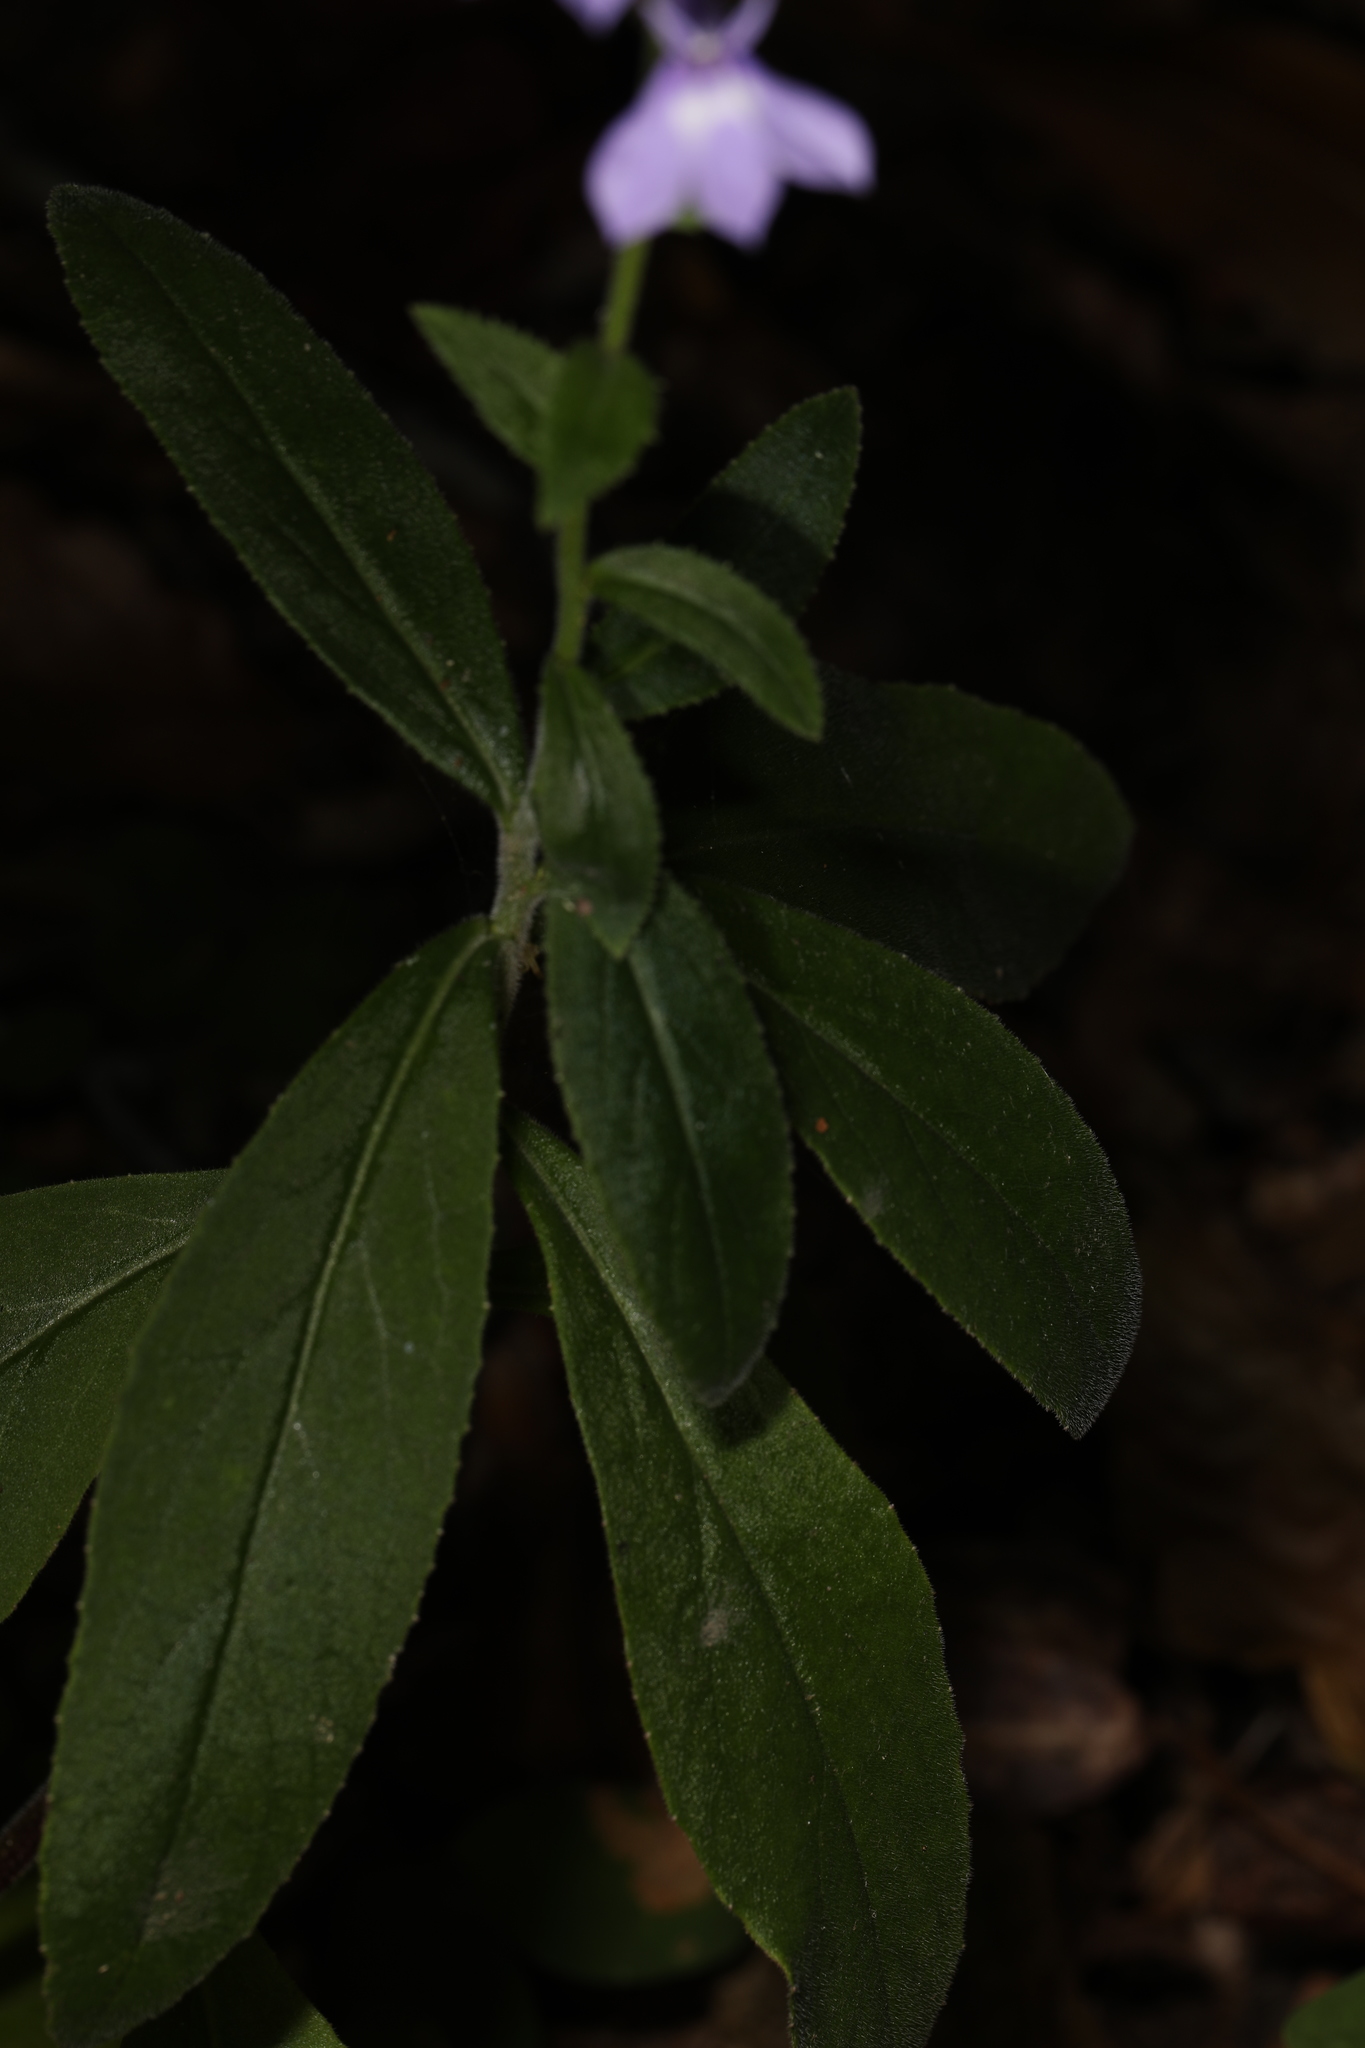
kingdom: Plantae
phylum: Tracheophyta
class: Magnoliopsida
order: Asterales
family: Campanulaceae
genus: Lobelia
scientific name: Lobelia puberula
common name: Purple dewdrop
